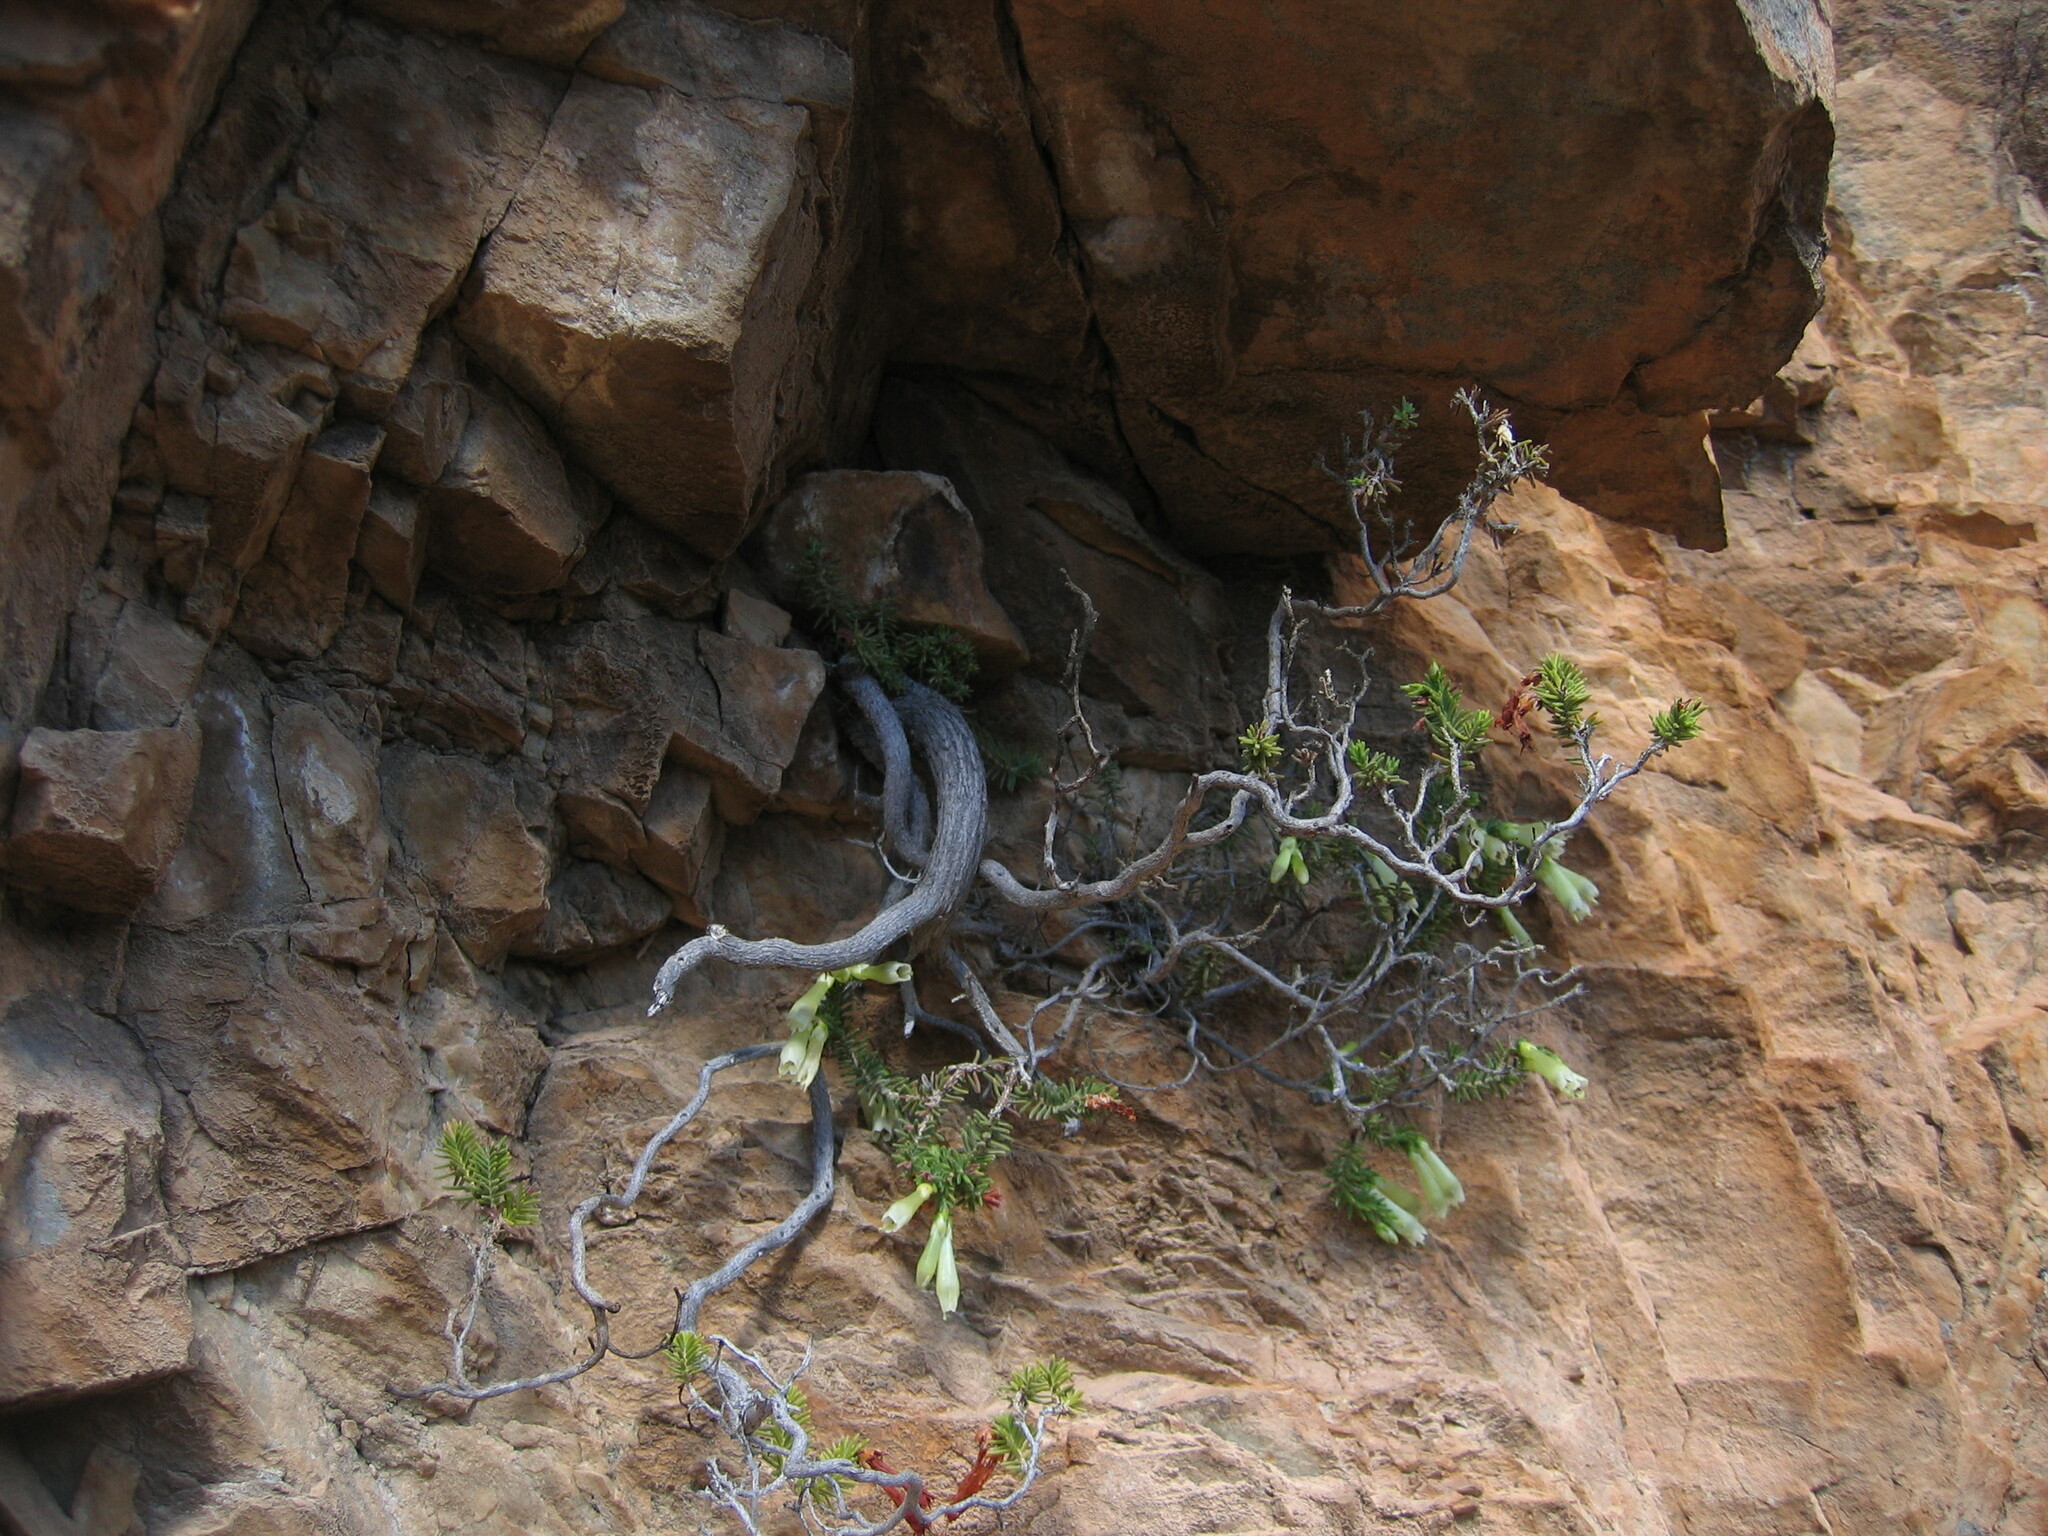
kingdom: Plantae
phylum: Tracheophyta
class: Magnoliopsida
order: Ericales
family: Ericaceae
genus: Erica
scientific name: Erica viridiflora
